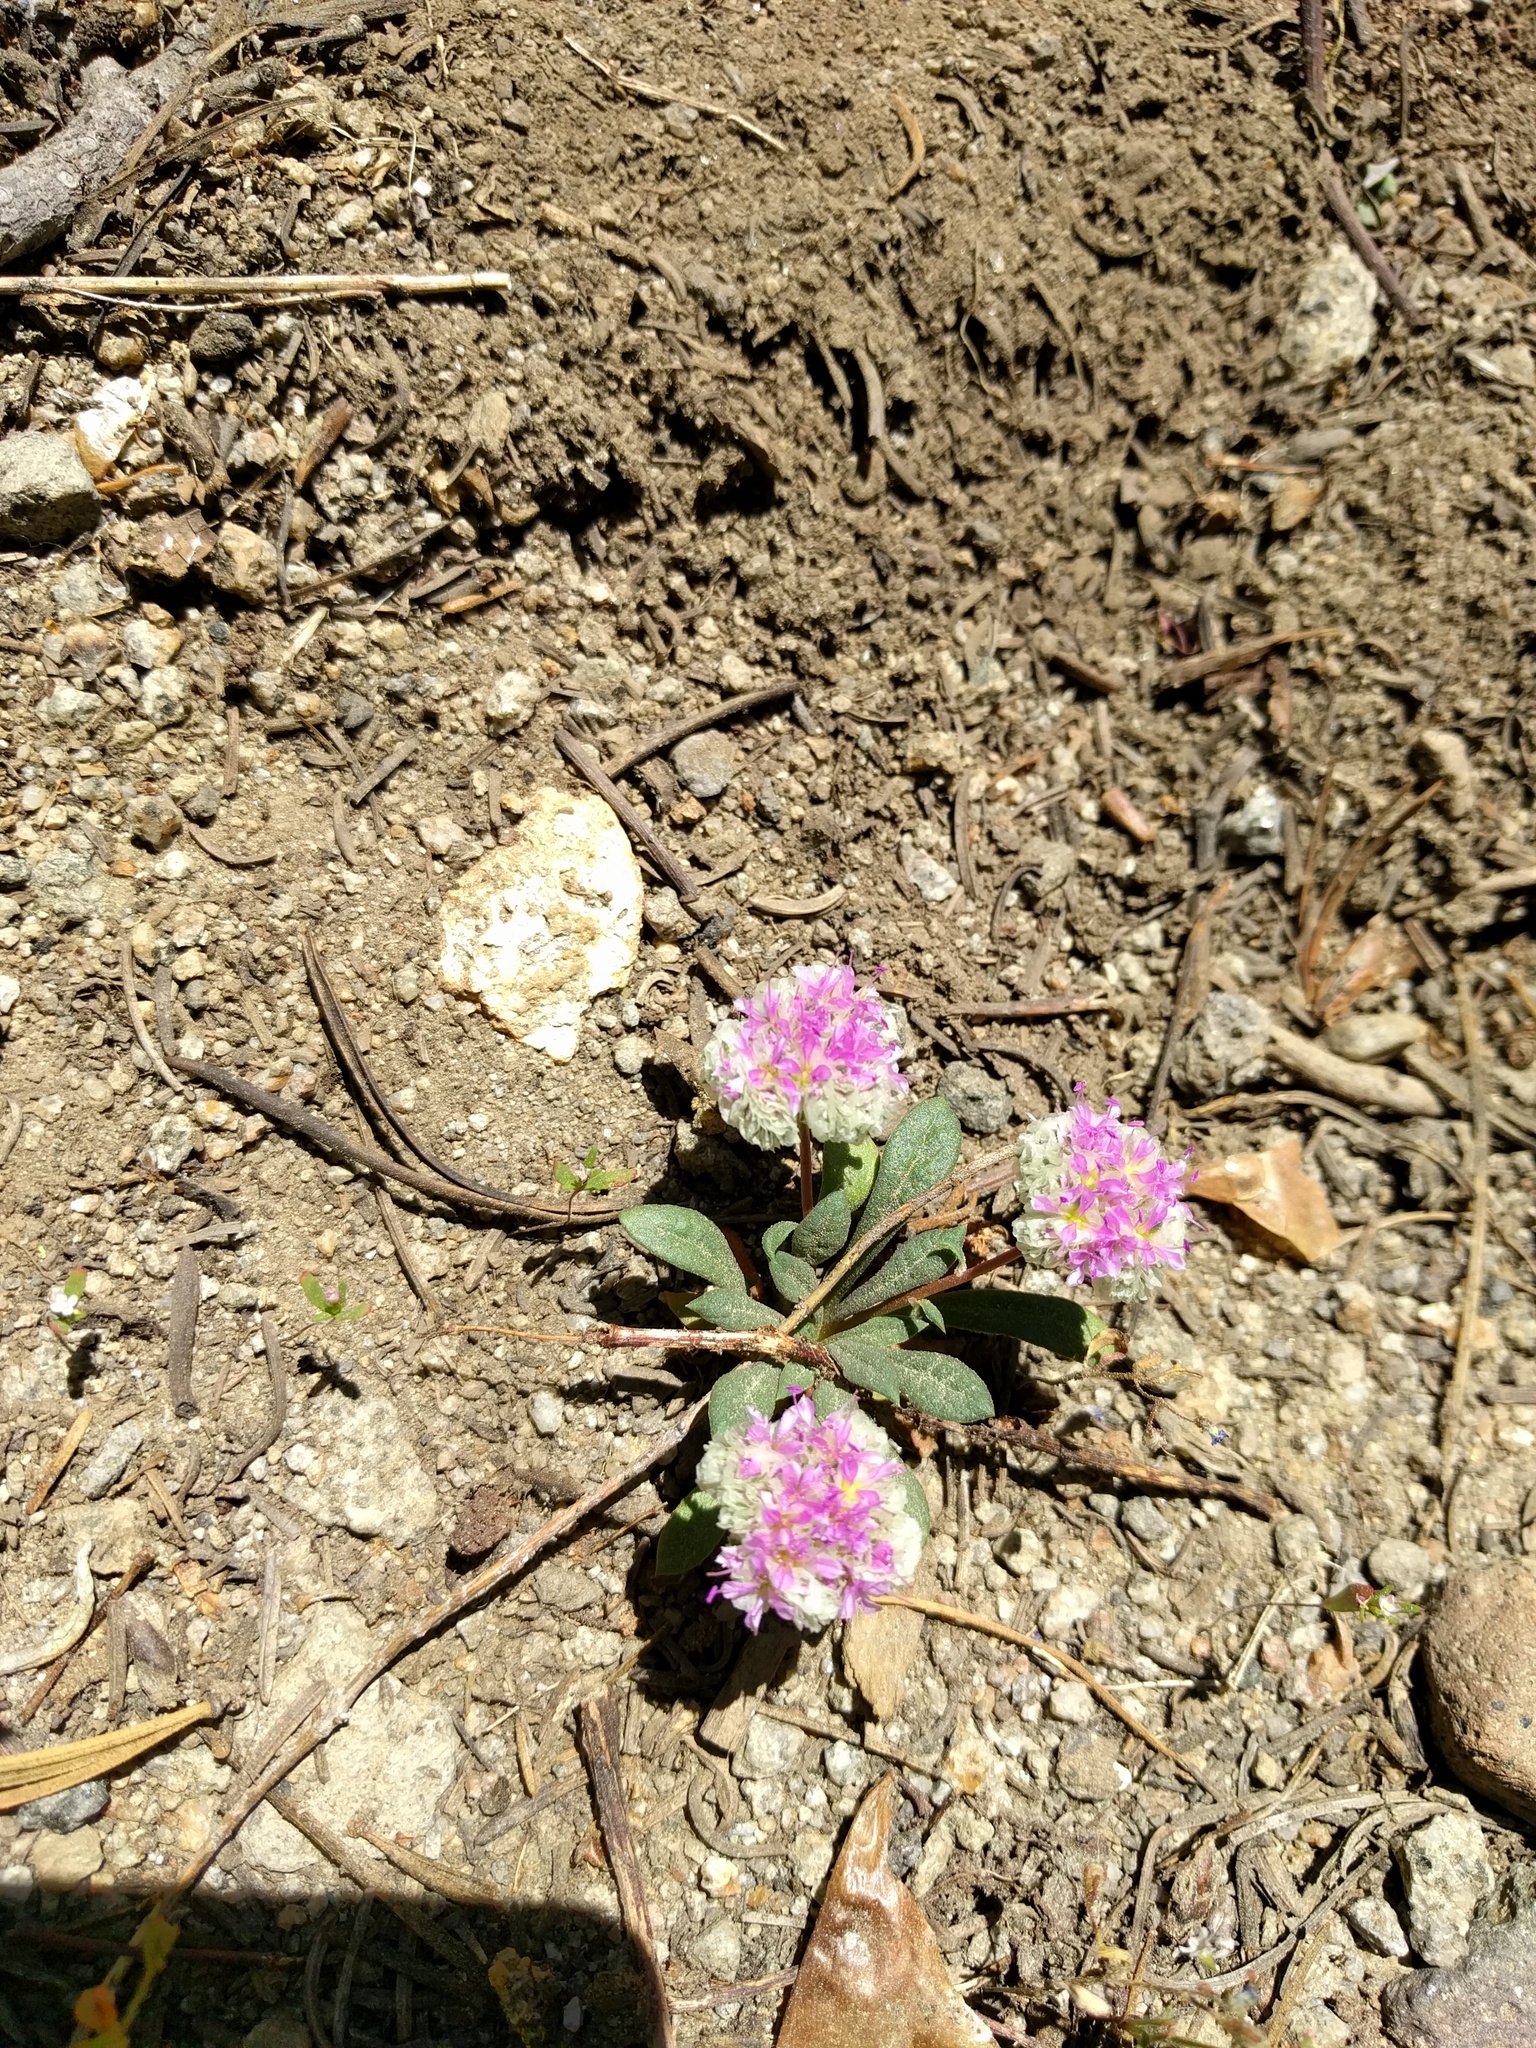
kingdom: Plantae
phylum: Tracheophyta
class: Magnoliopsida
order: Caryophyllales
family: Montiaceae
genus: Calyptridium
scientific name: Calyptridium monospermum
